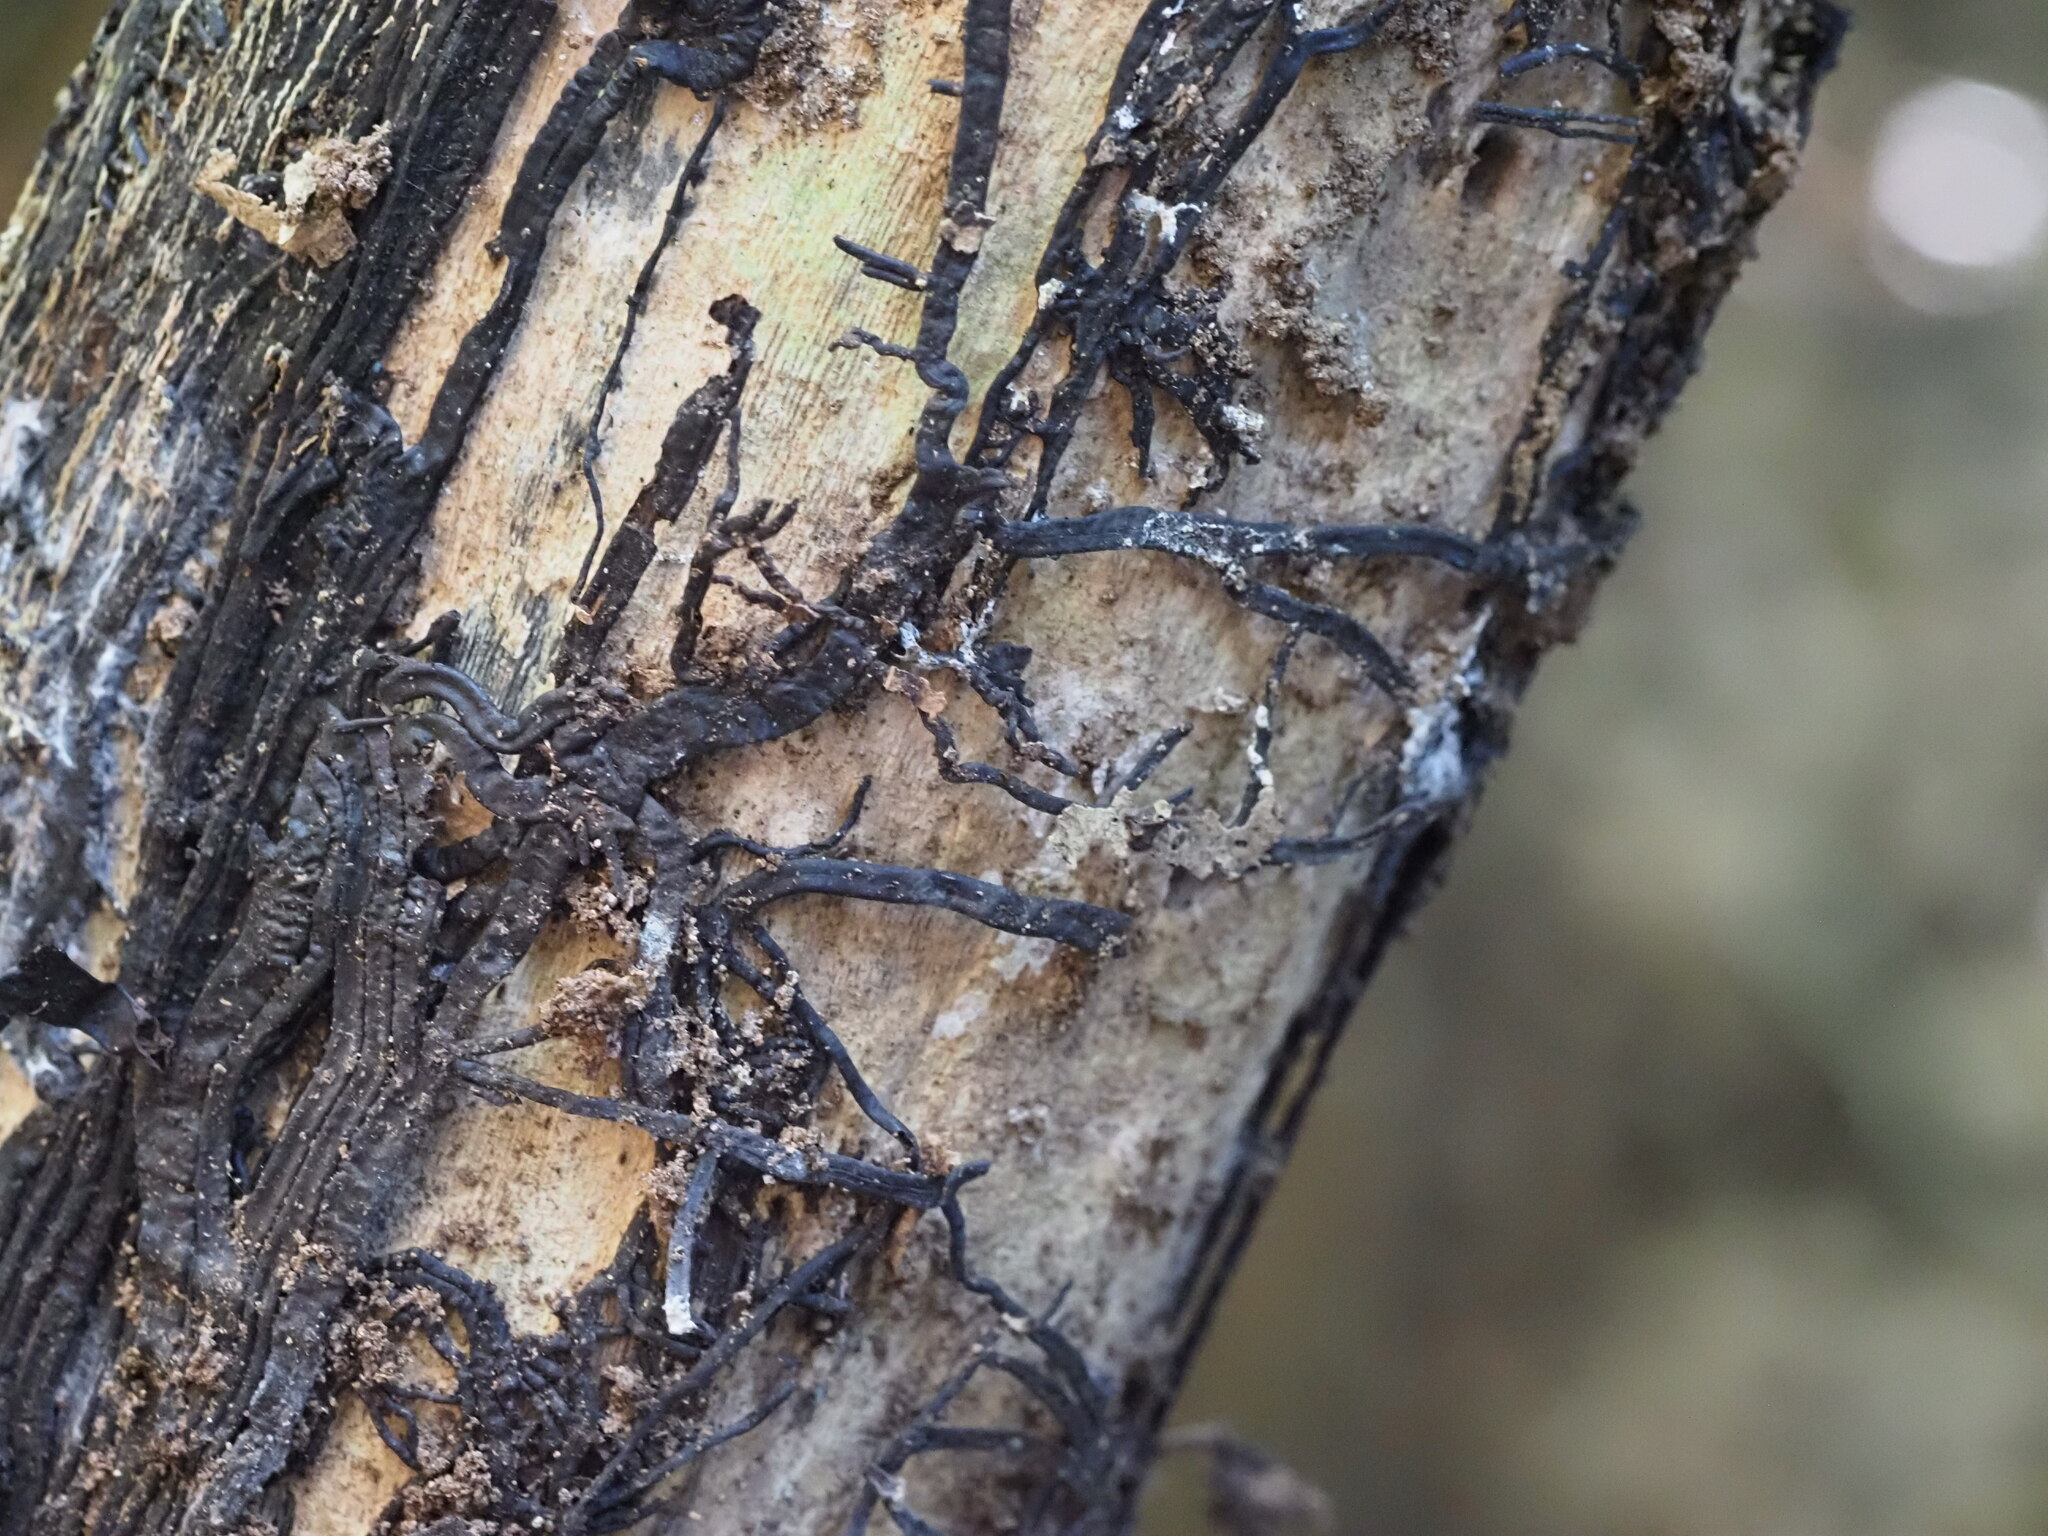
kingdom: Fungi
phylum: Basidiomycota
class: Agaricomycetes
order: Agaricales
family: Physalacriaceae
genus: Armillaria
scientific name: Armillaria
